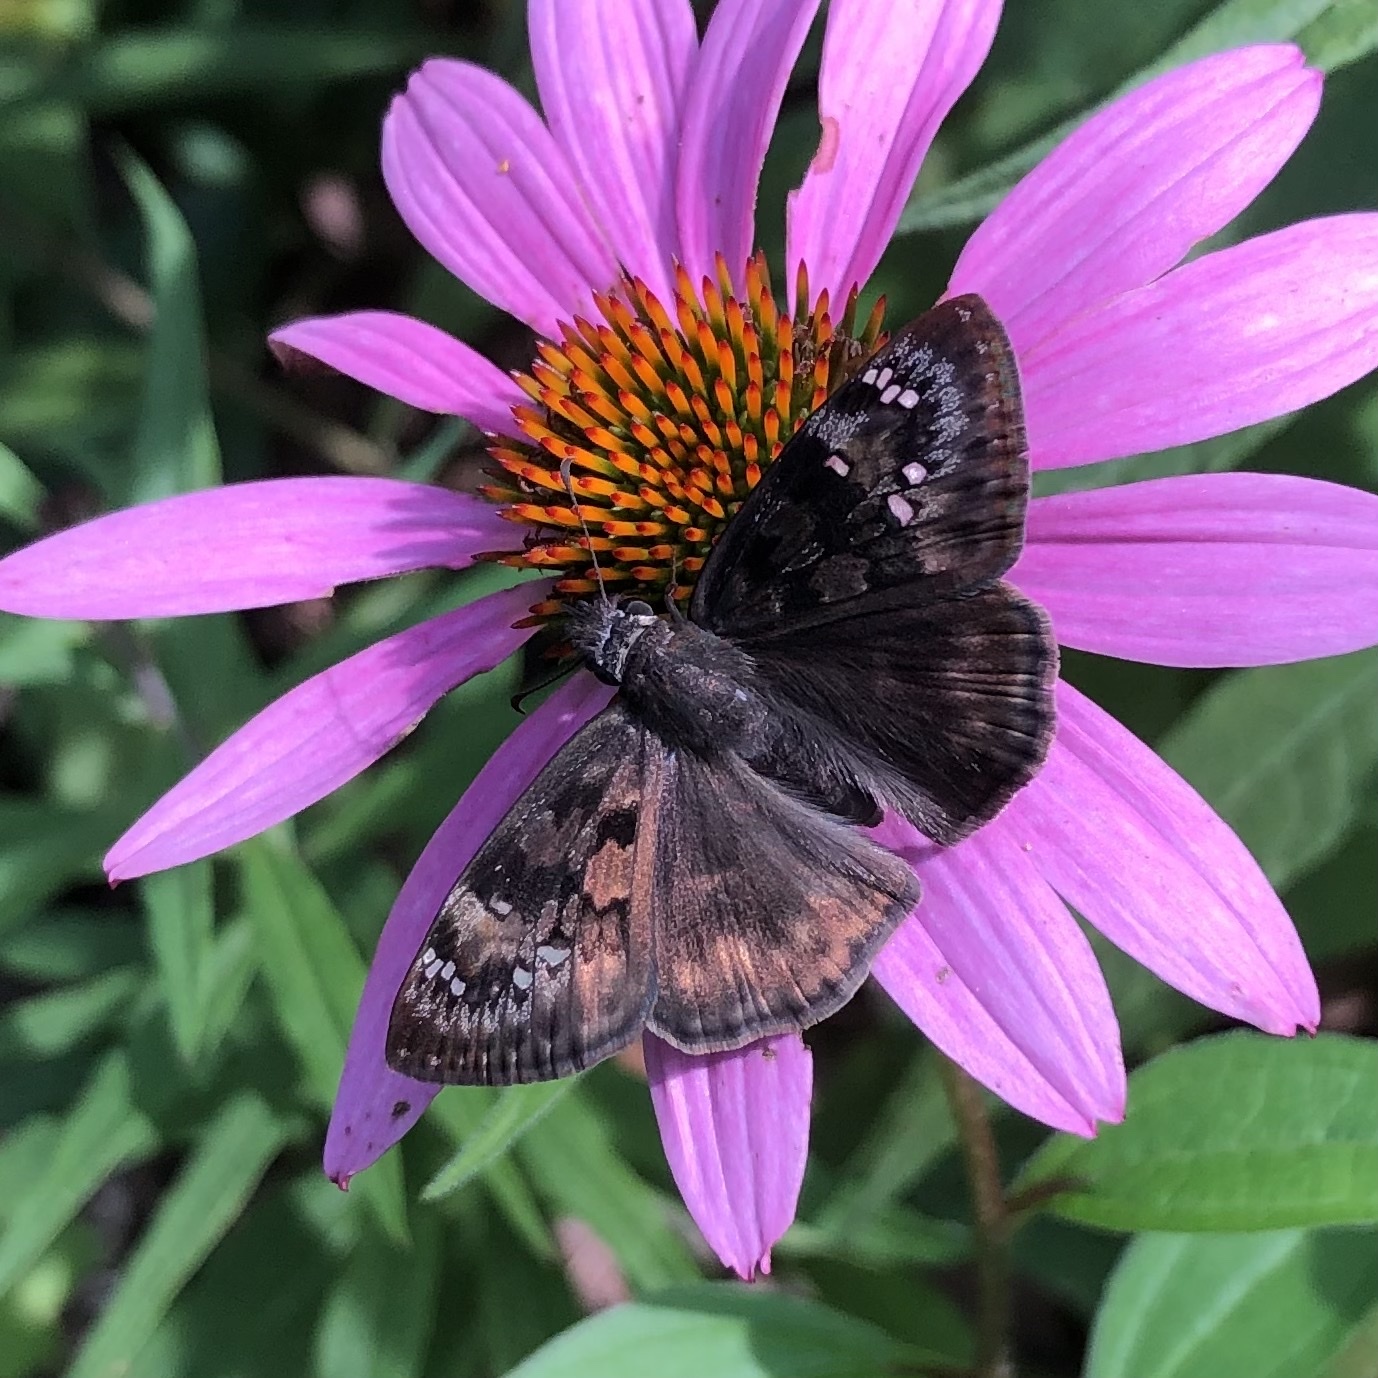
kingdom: Animalia
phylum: Arthropoda
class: Insecta
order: Lepidoptera
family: Hesperiidae
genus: Erynnis
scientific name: Erynnis horatius
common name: Horace's duskywing
